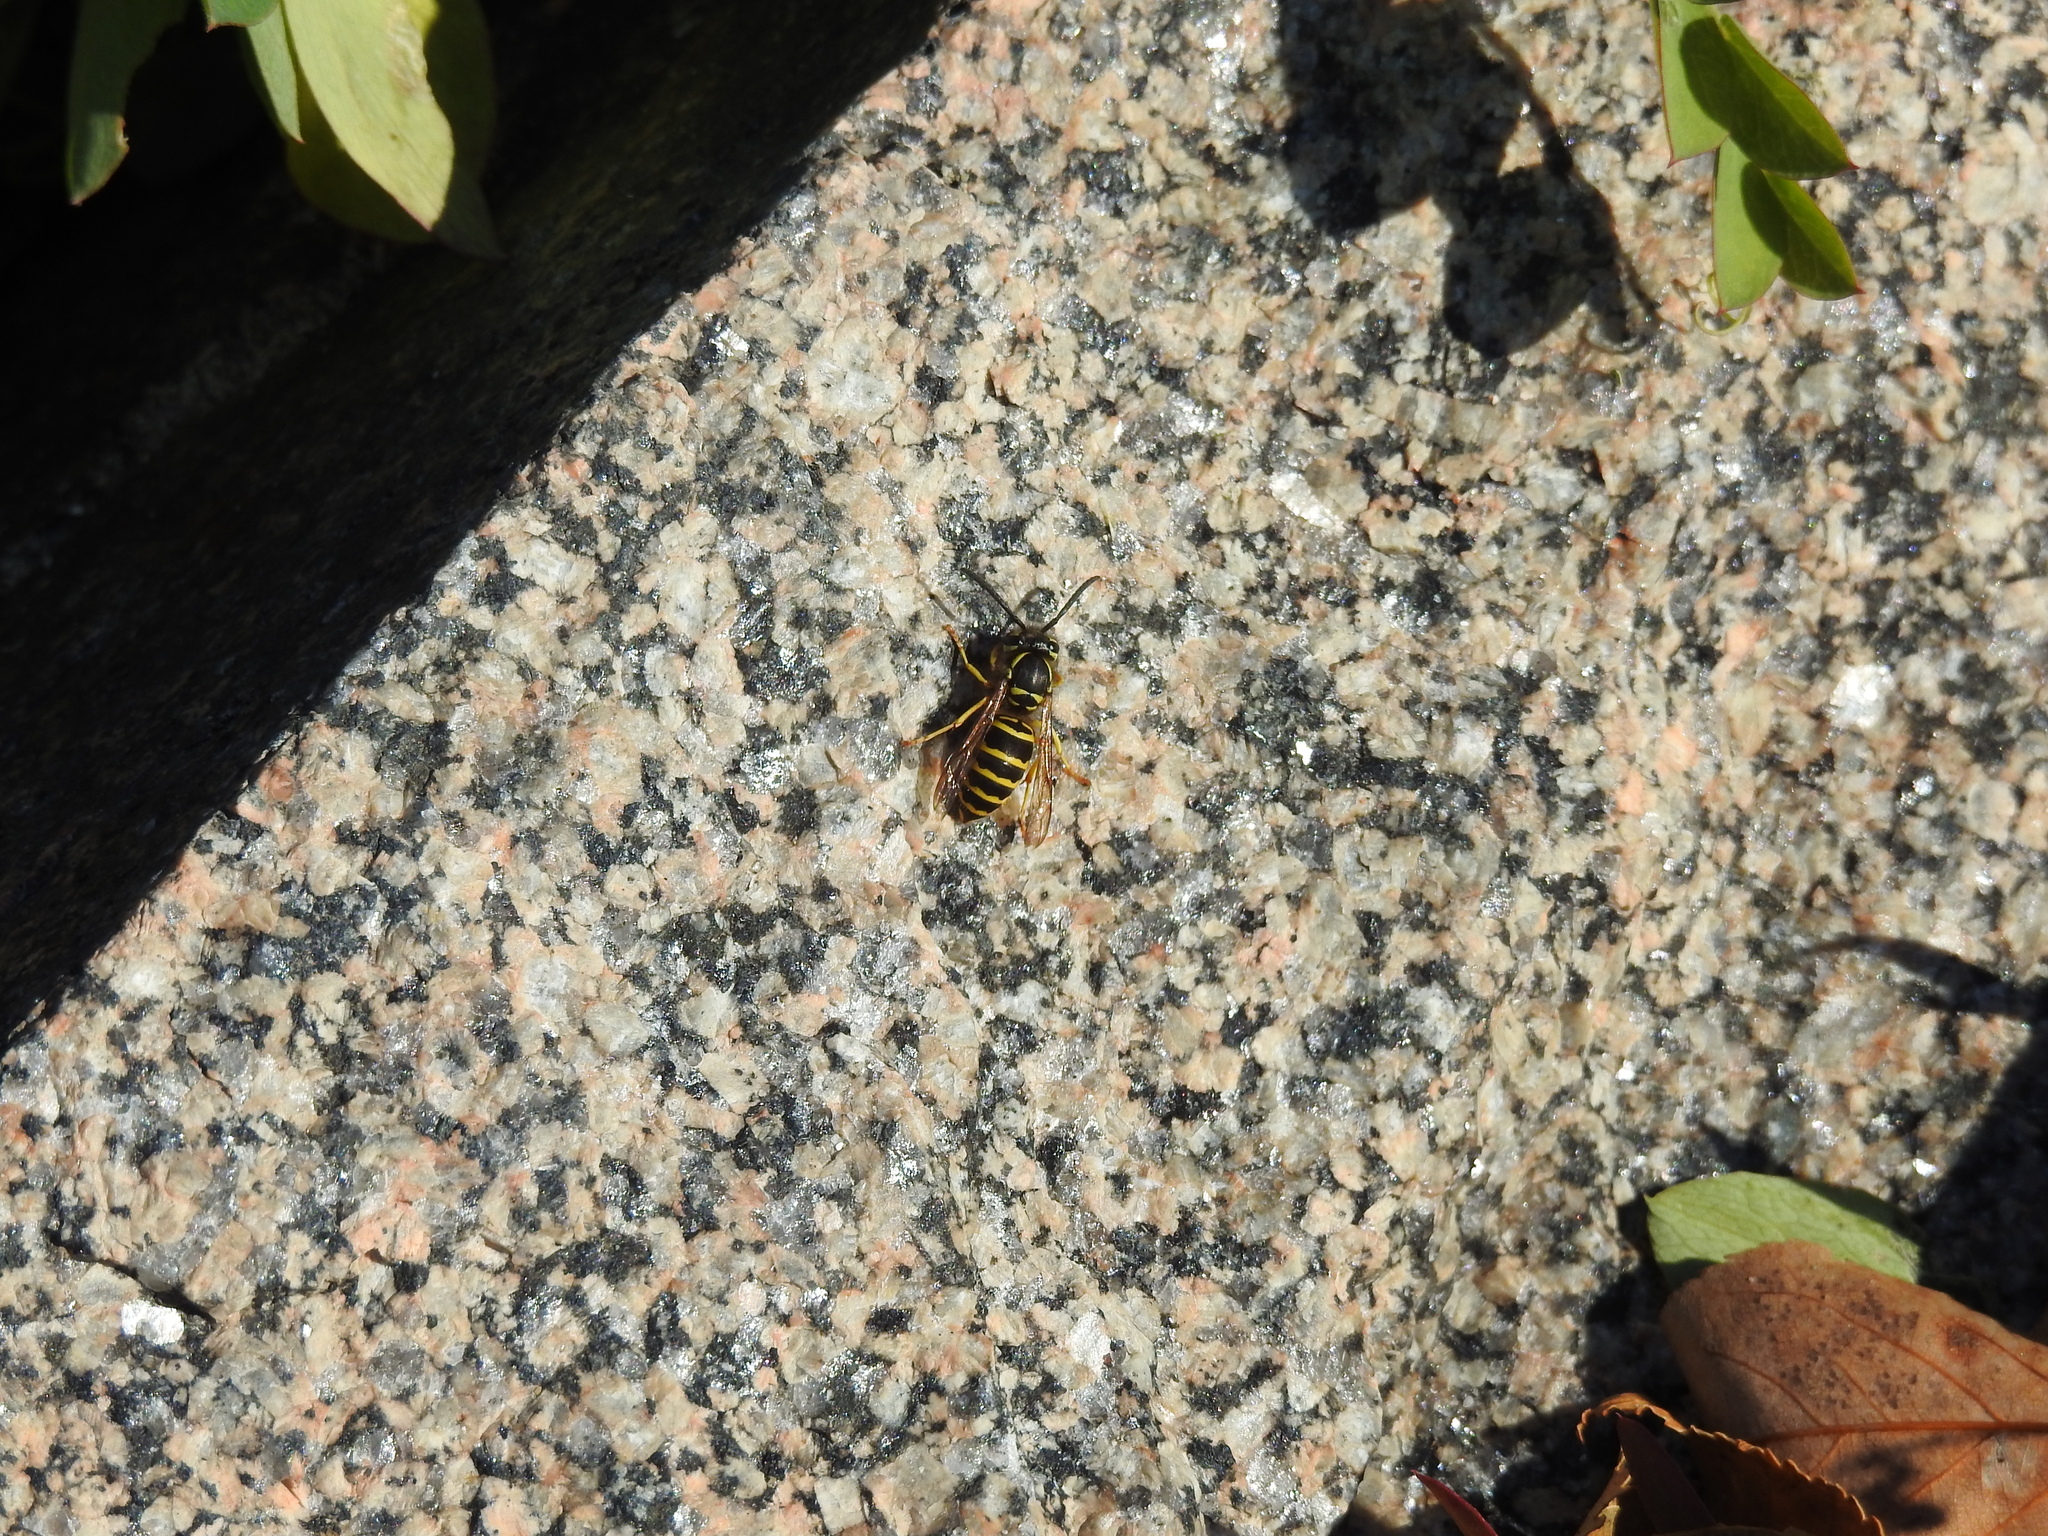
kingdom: Animalia
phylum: Arthropoda
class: Insecta
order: Hymenoptera
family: Vespidae
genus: Vespula
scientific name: Vespula maculifrons
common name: Eastern yellowjacket
